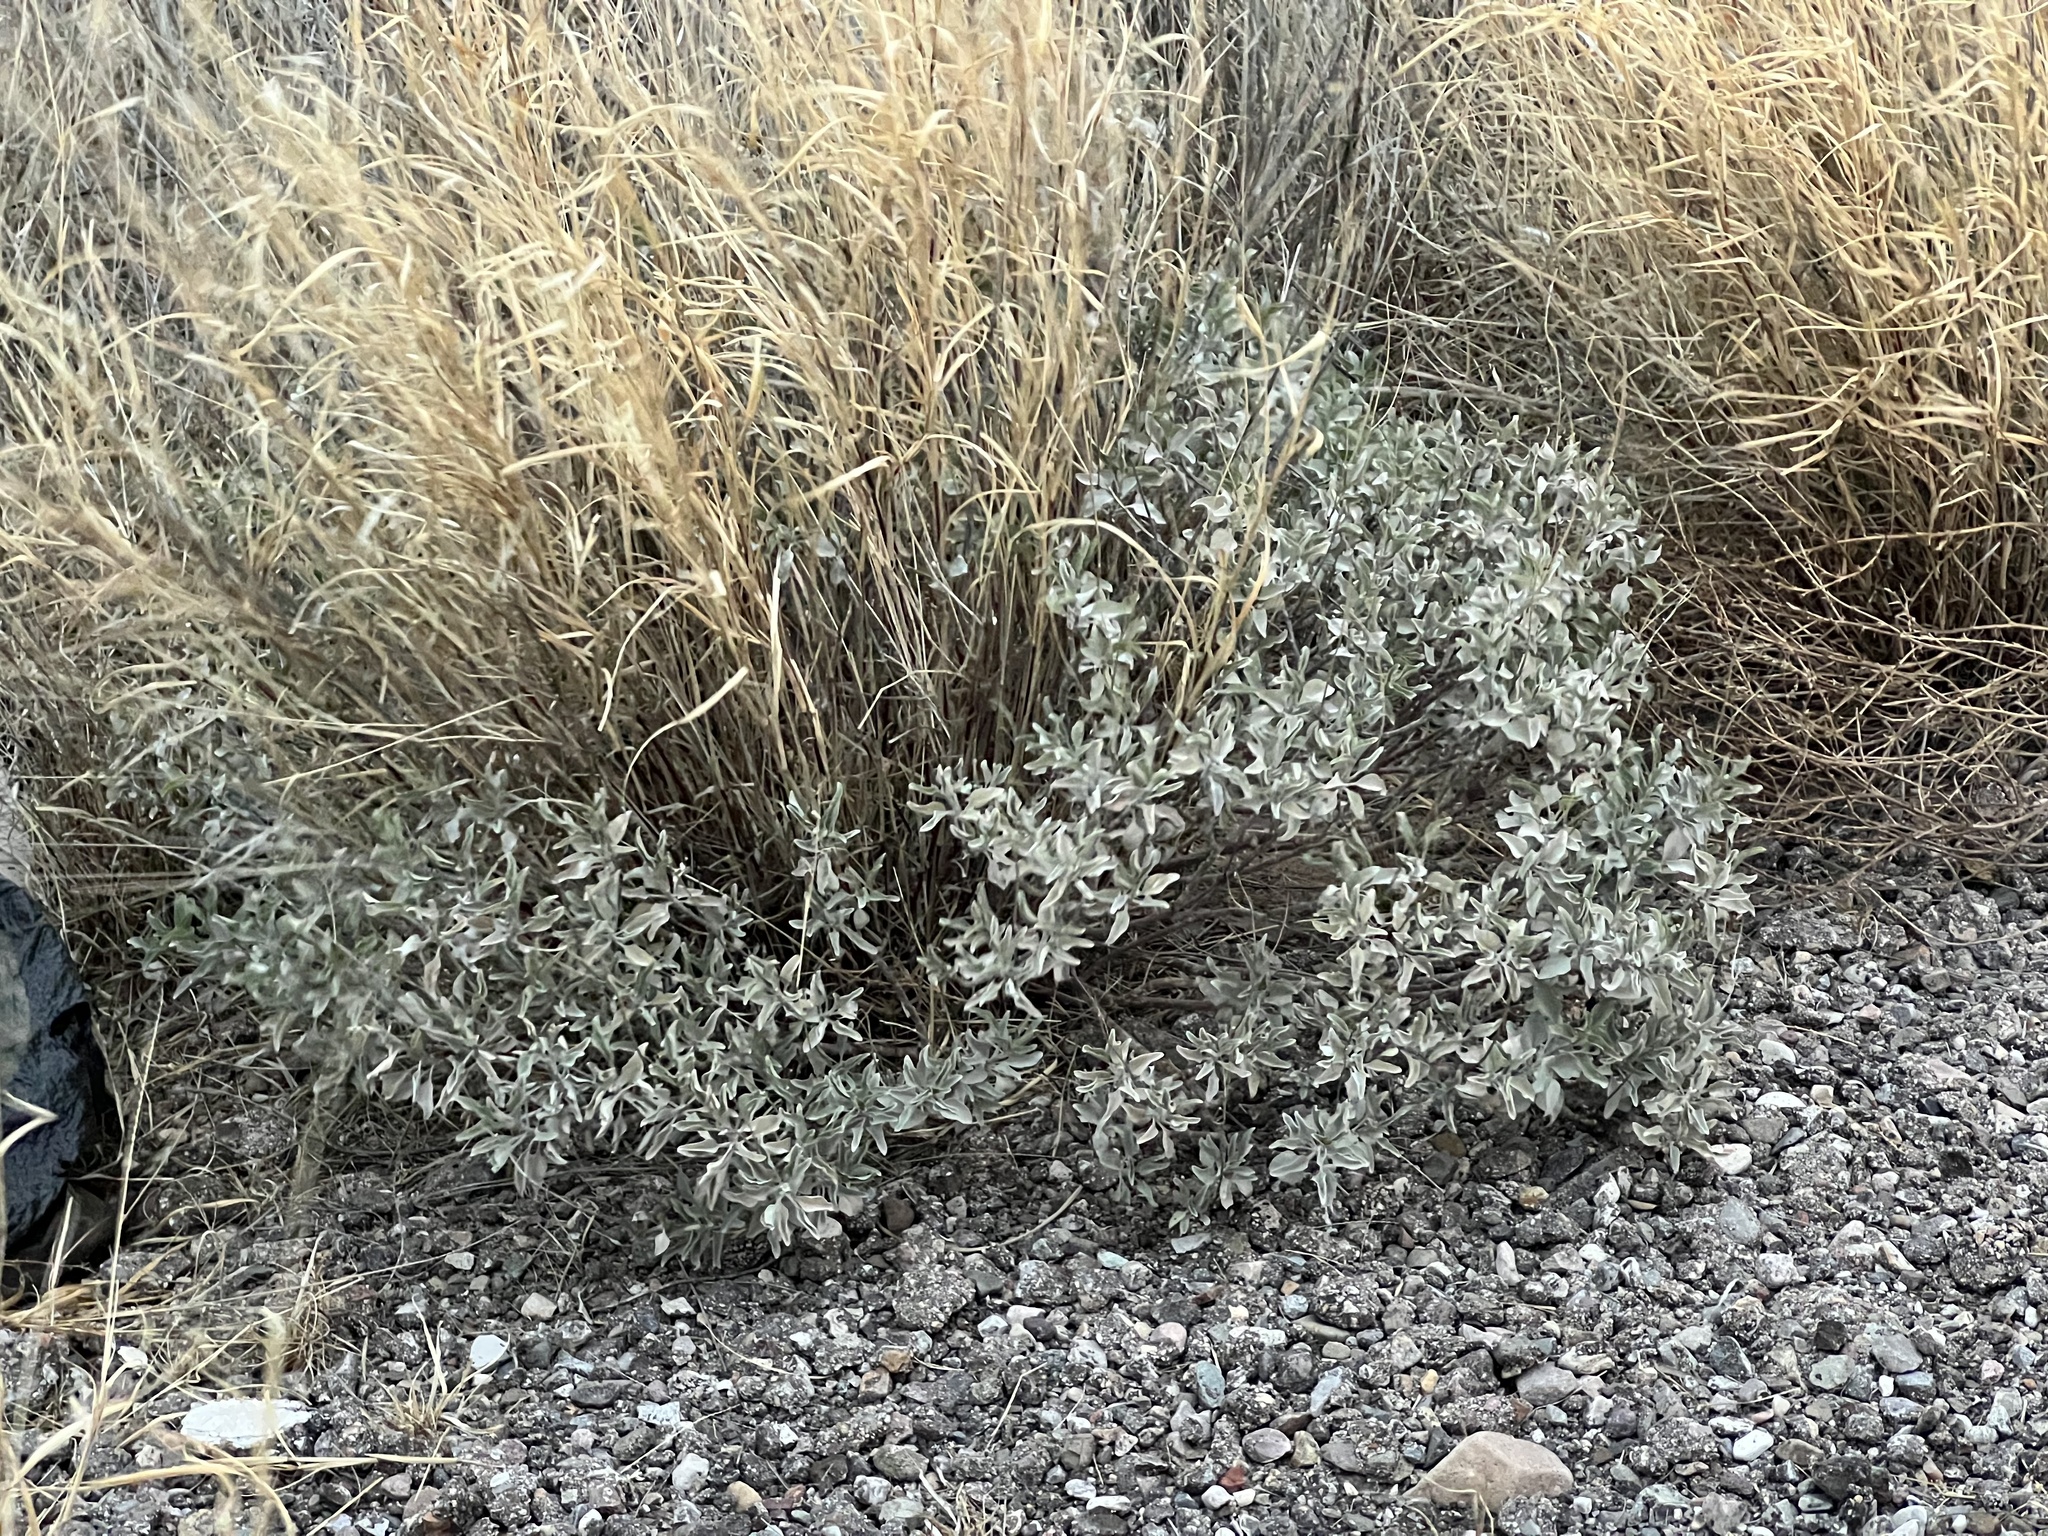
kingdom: Plantae
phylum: Tracheophyta
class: Magnoliopsida
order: Asterales
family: Asteraceae
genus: Encelia
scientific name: Encelia farinosa
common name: Brittlebush
